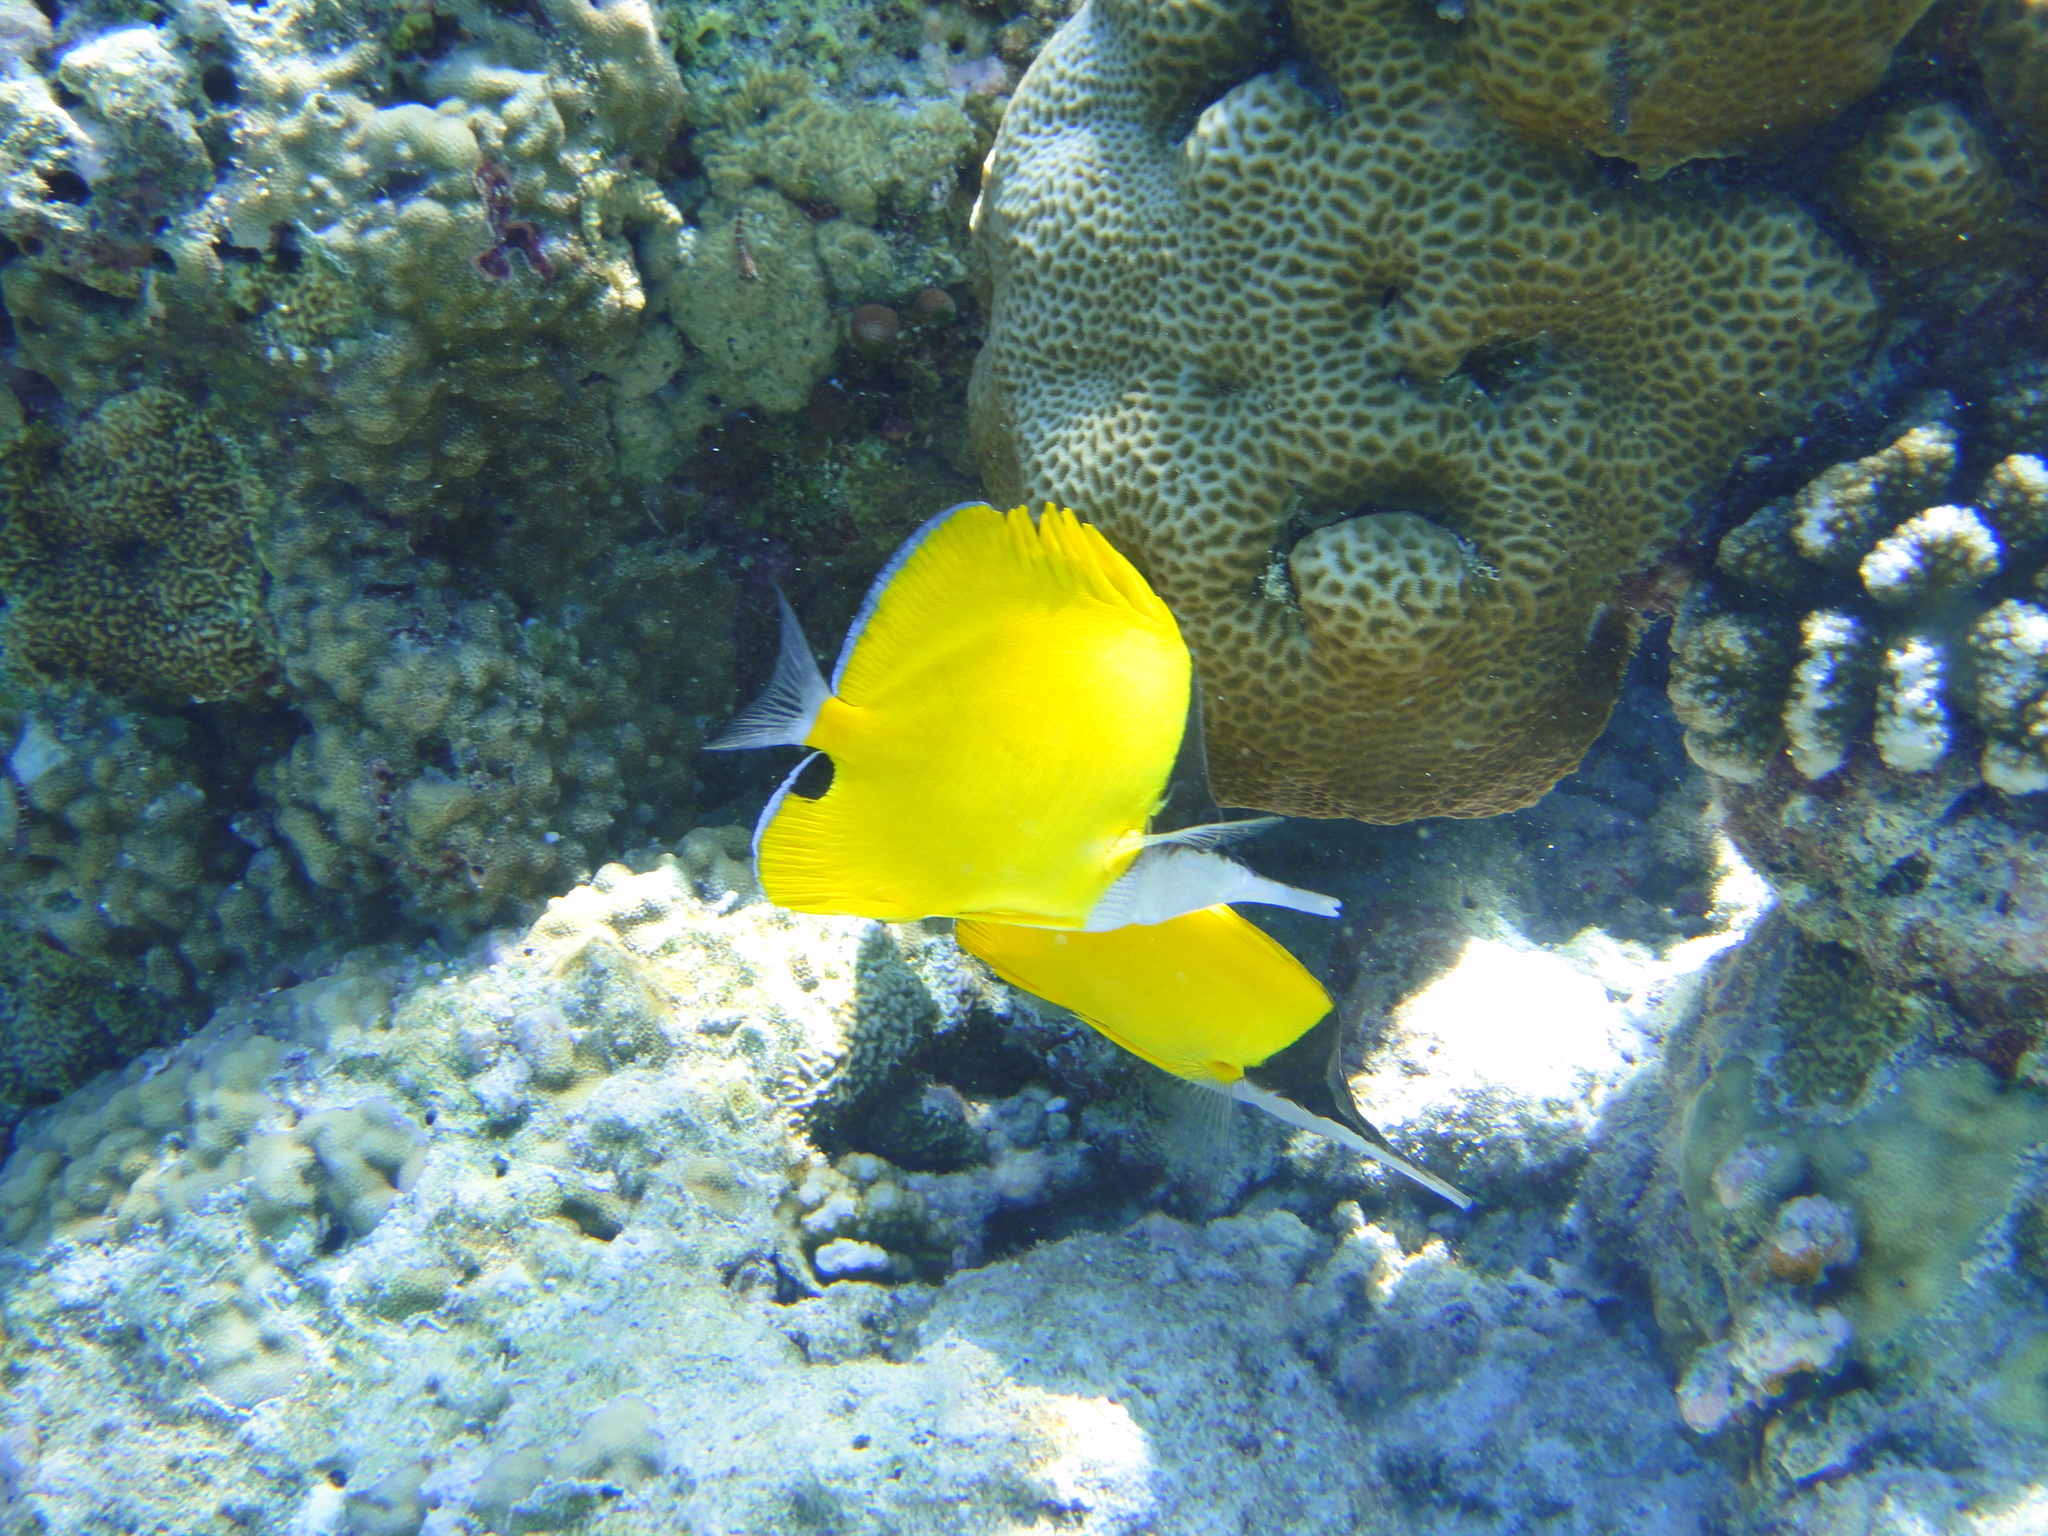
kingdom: Animalia
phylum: Chordata
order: Perciformes
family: Chaetodontidae
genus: Forcipiger
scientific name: Forcipiger longirostris
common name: Longnose butterflyfish
